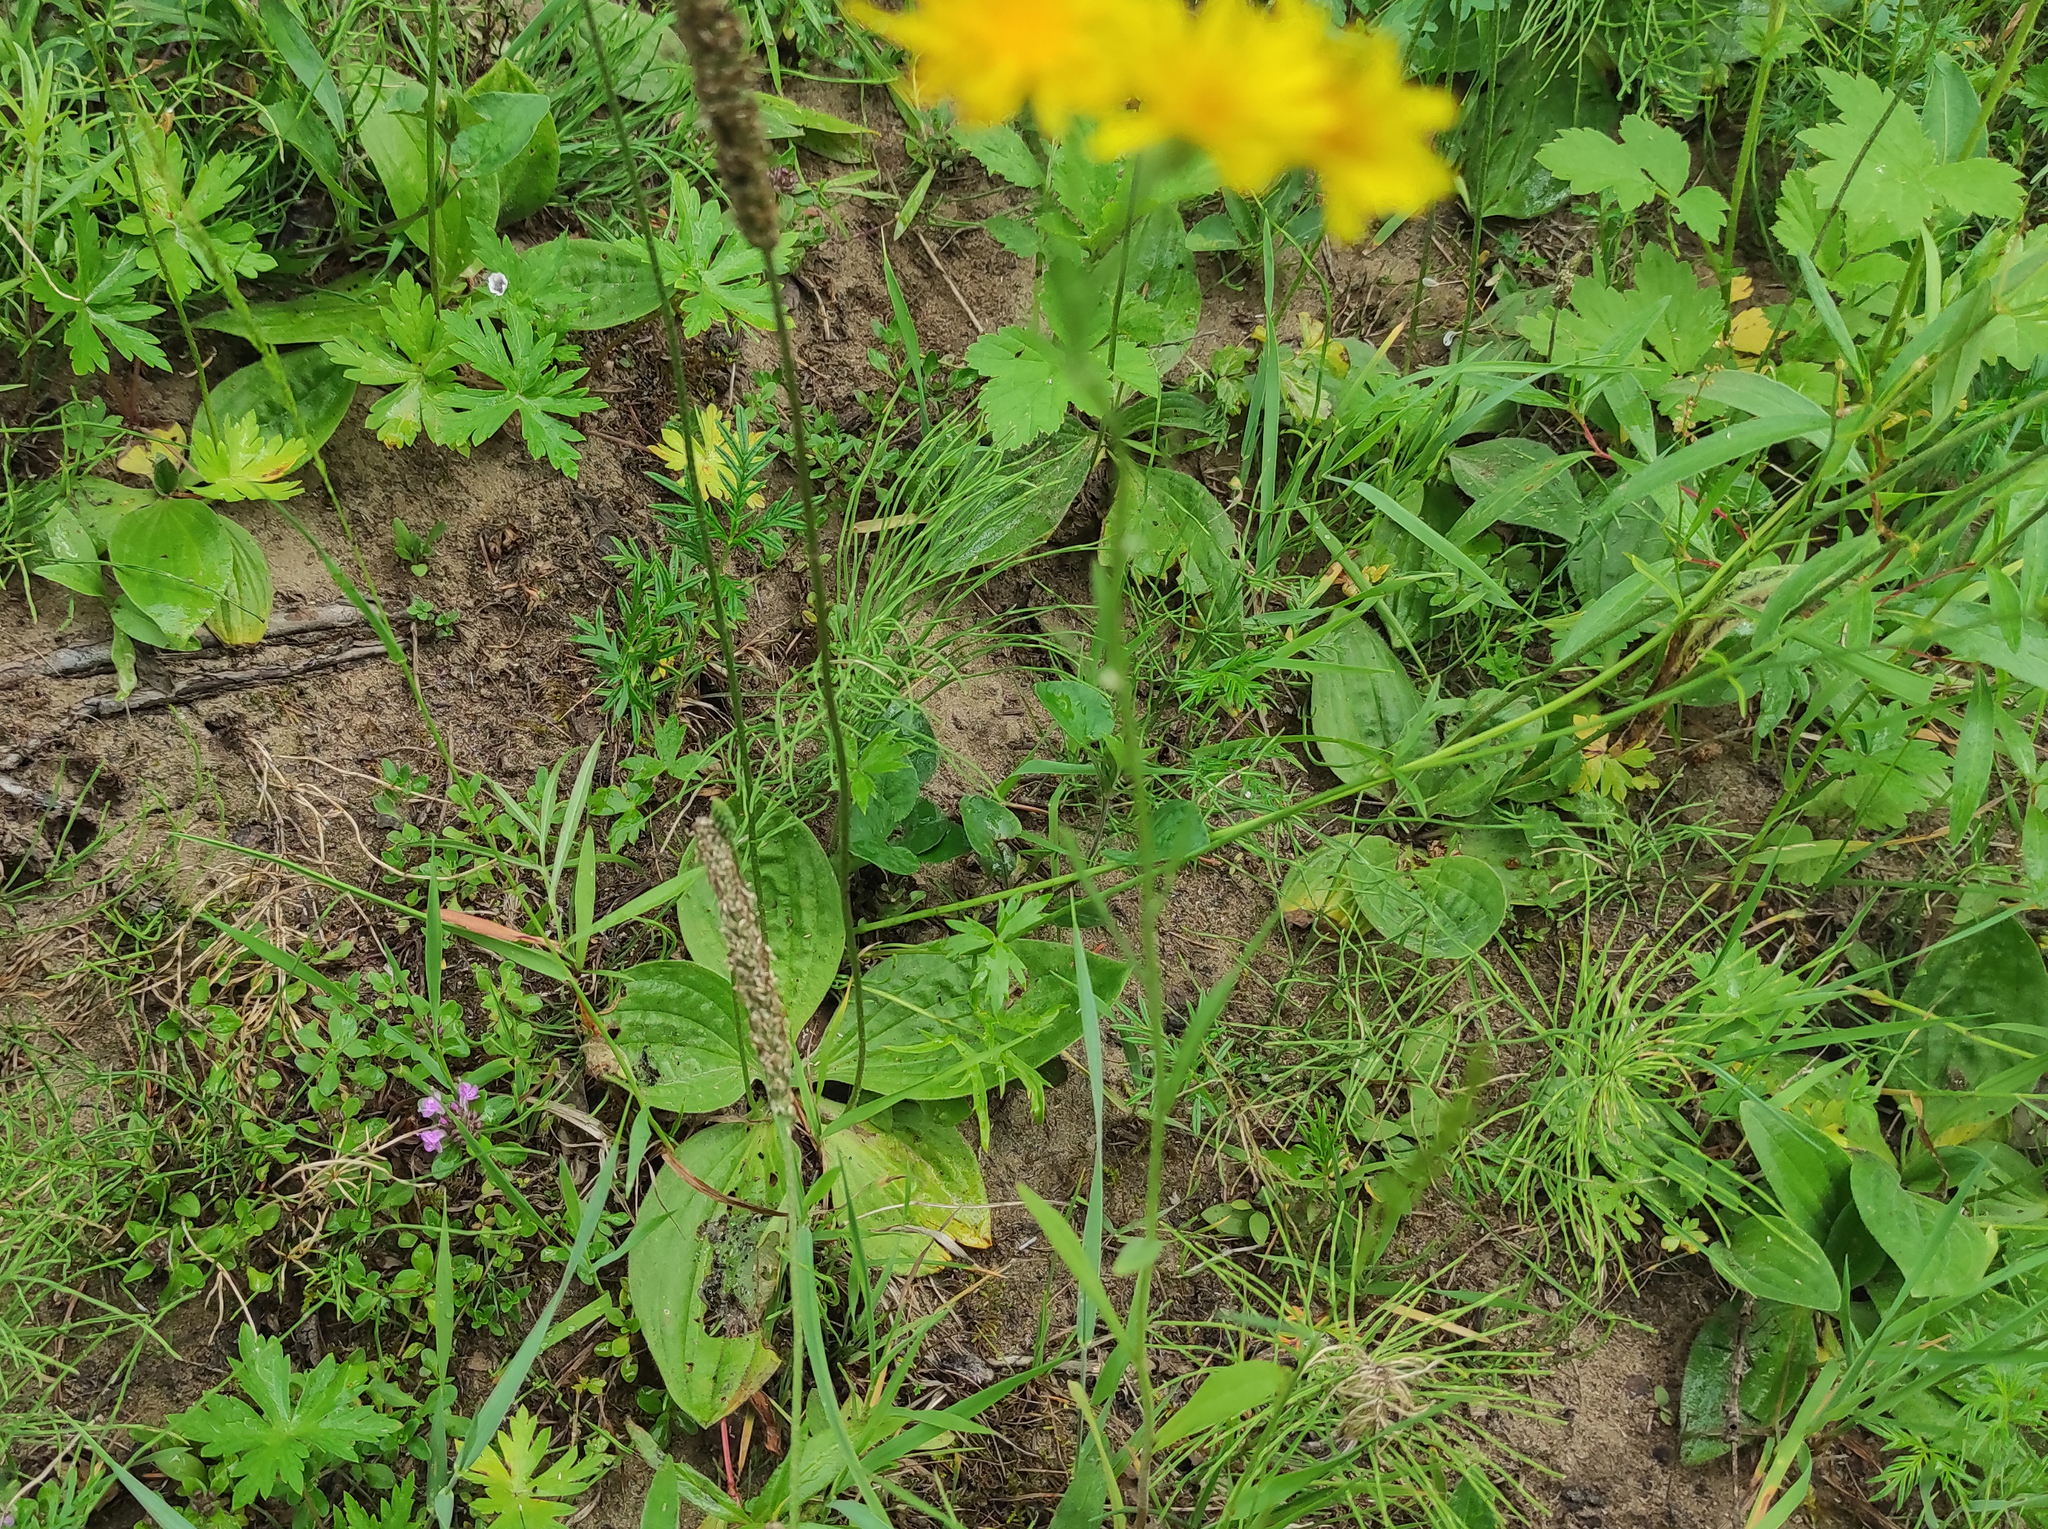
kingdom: Plantae
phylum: Tracheophyta
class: Magnoliopsida
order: Lamiales
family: Plantaginaceae
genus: Plantago
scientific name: Plantago media
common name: Hoary plantain
